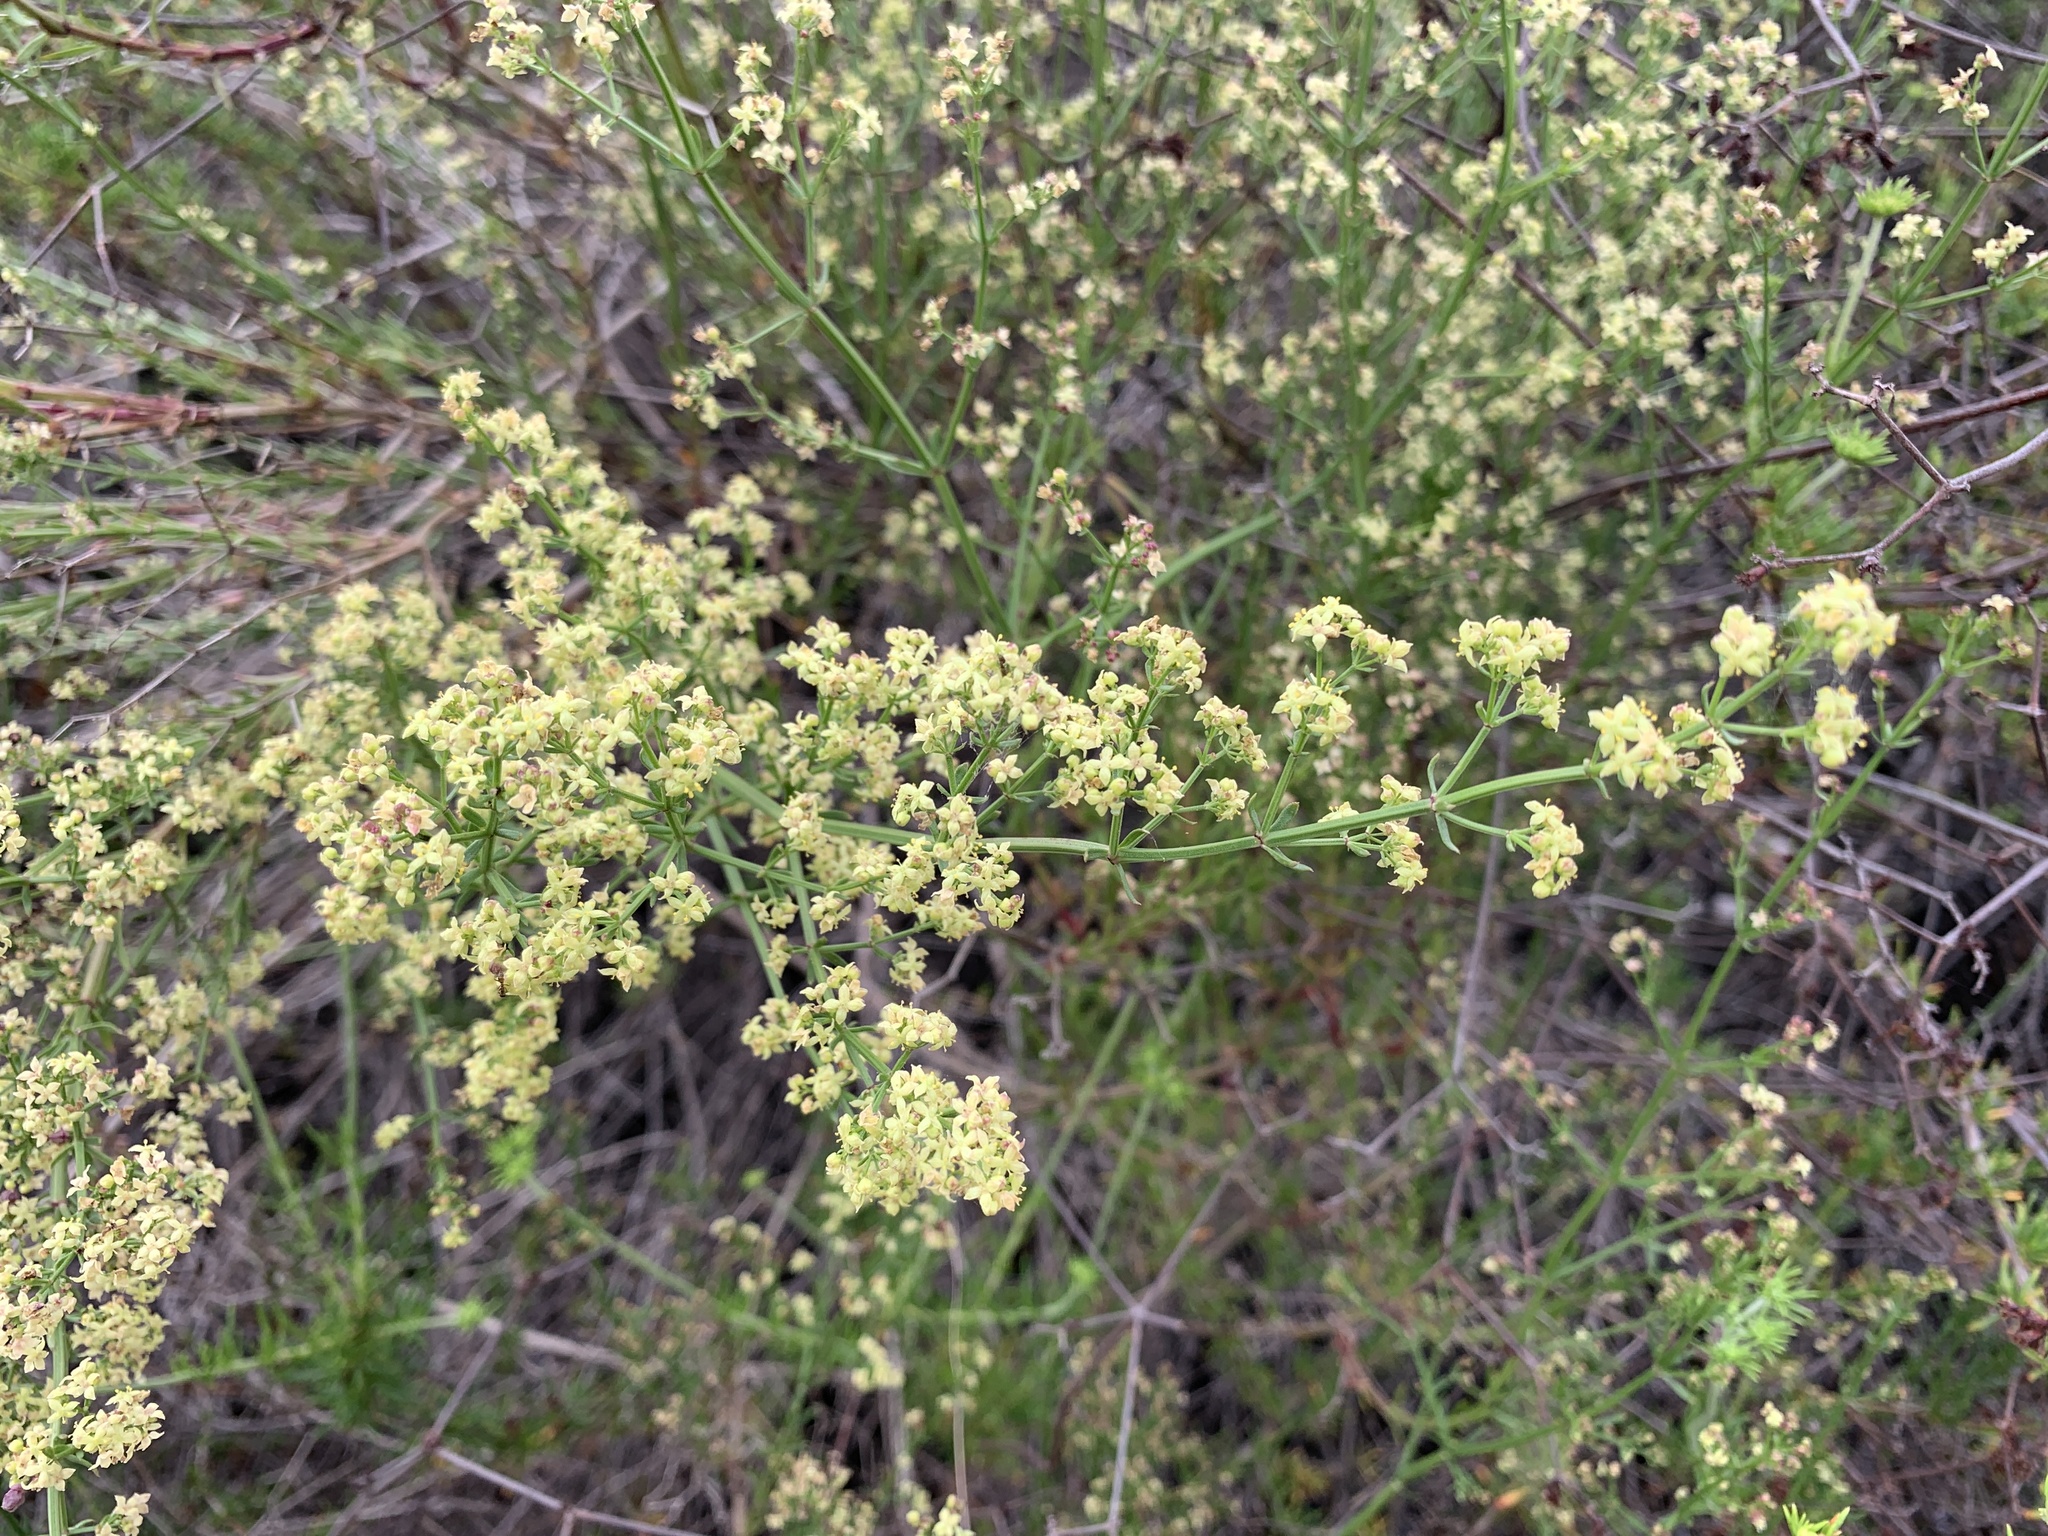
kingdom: Plantae
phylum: Tracheophyta
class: Magnoliopsida
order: Gentianales
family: Rubiaceae
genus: Galium
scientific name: Galium angustifolium
